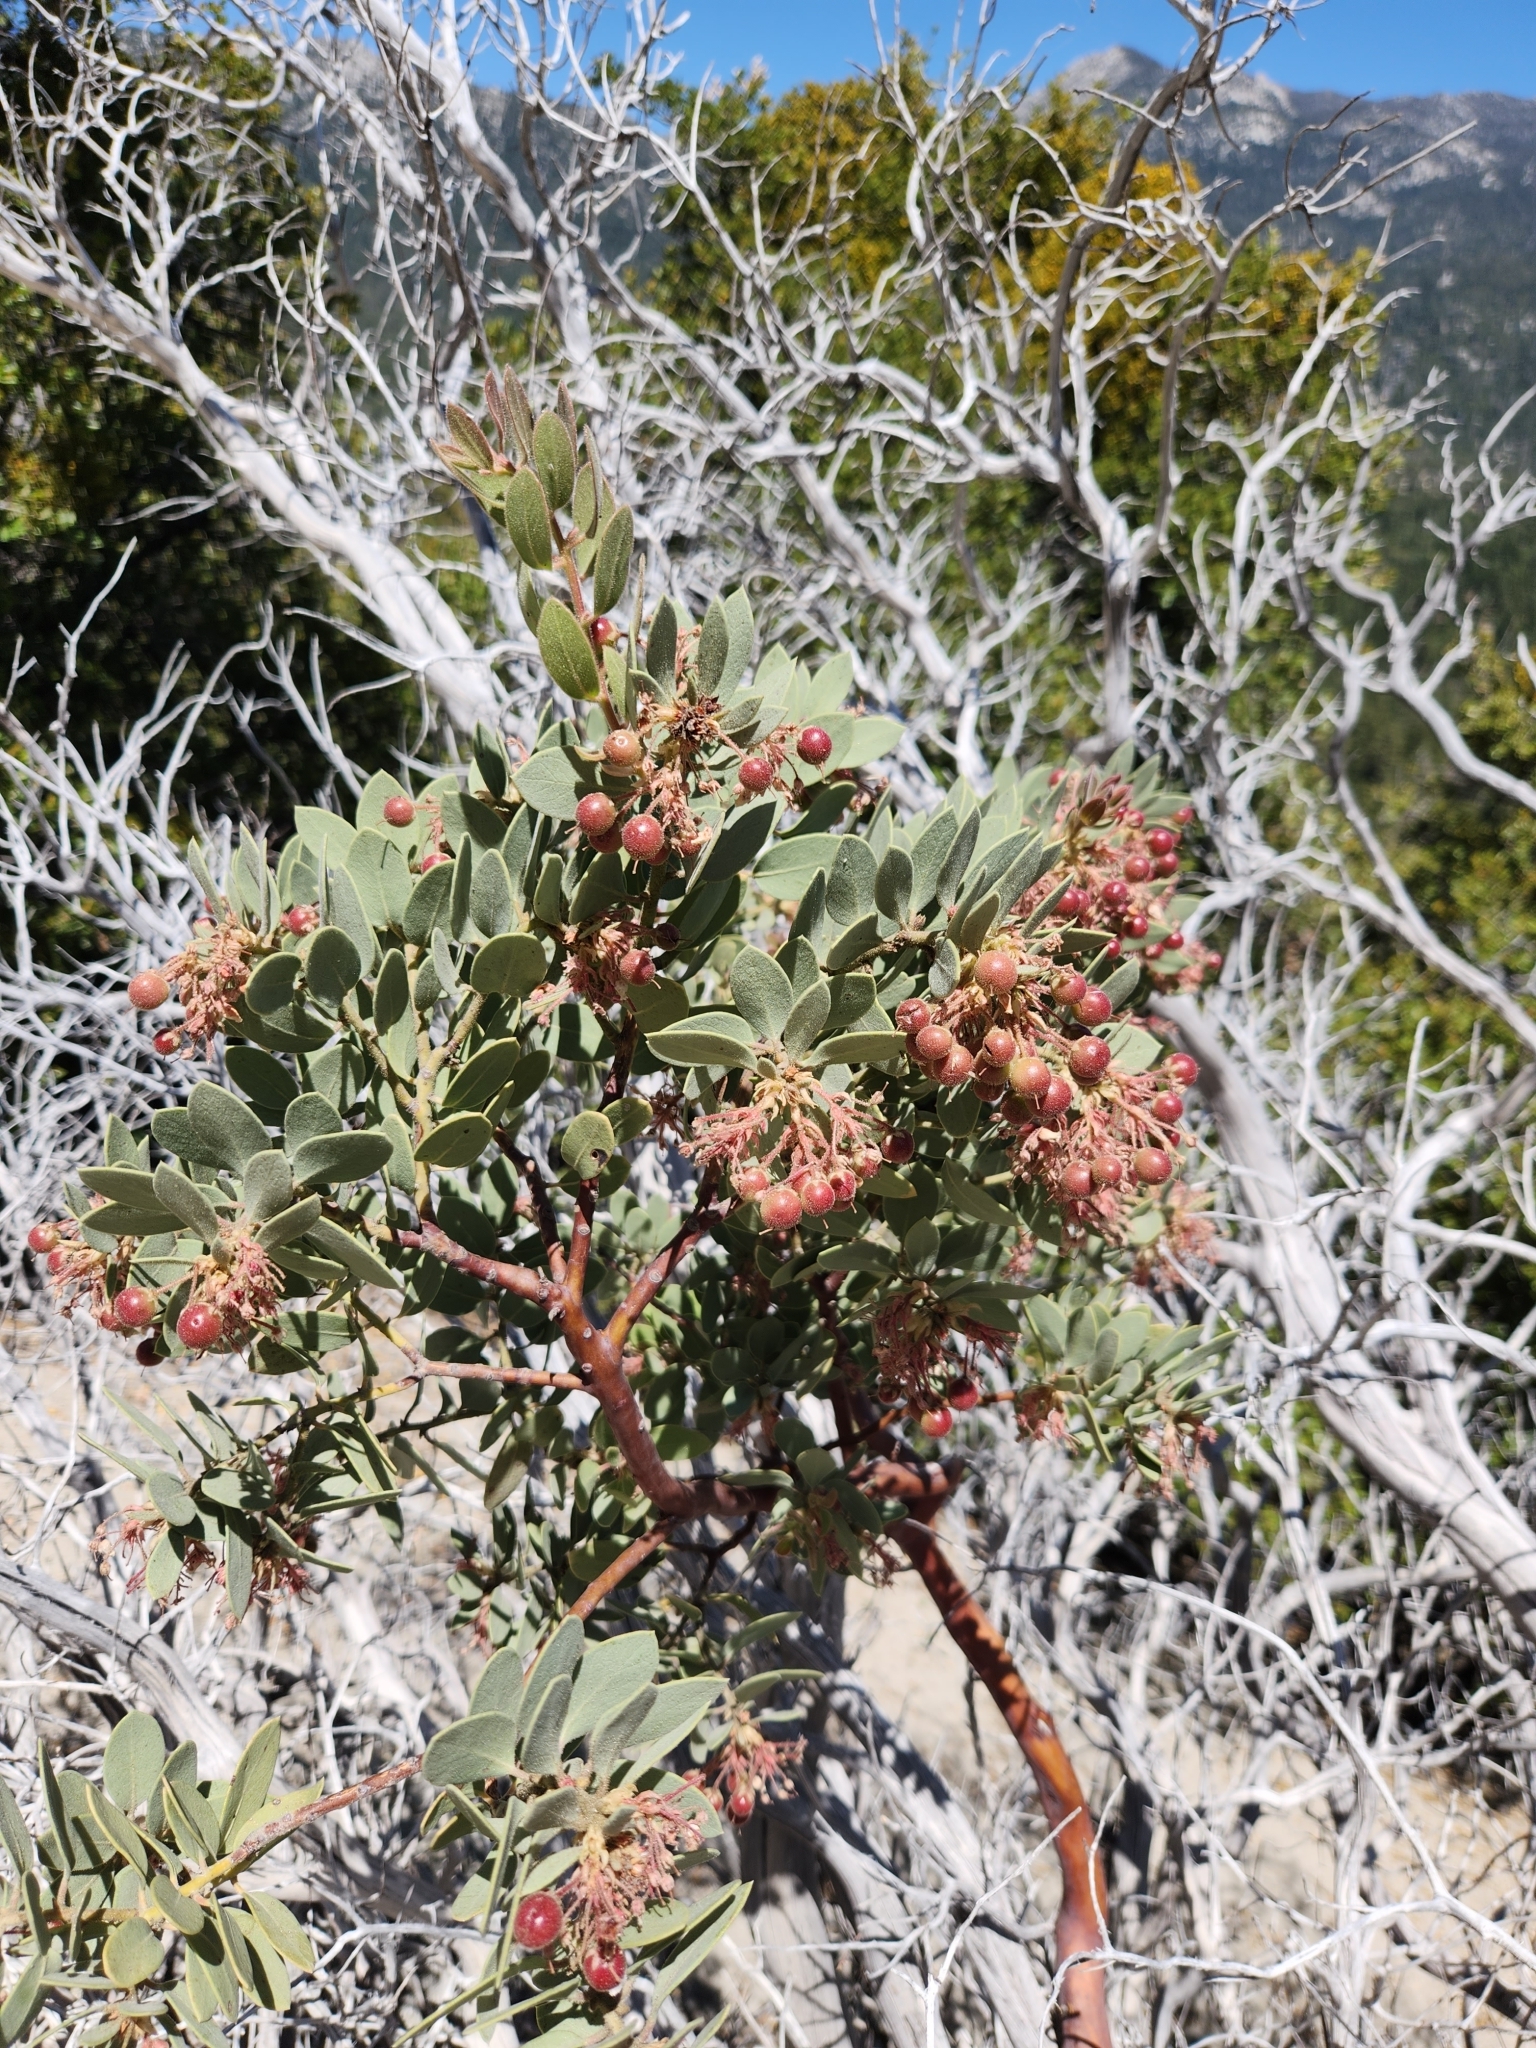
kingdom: Plantae
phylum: Tracheophyta
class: Magnoliopsida
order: Ericales
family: Ericaceae
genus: Arctostaphylos
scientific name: Arctostaphylos pringlei
